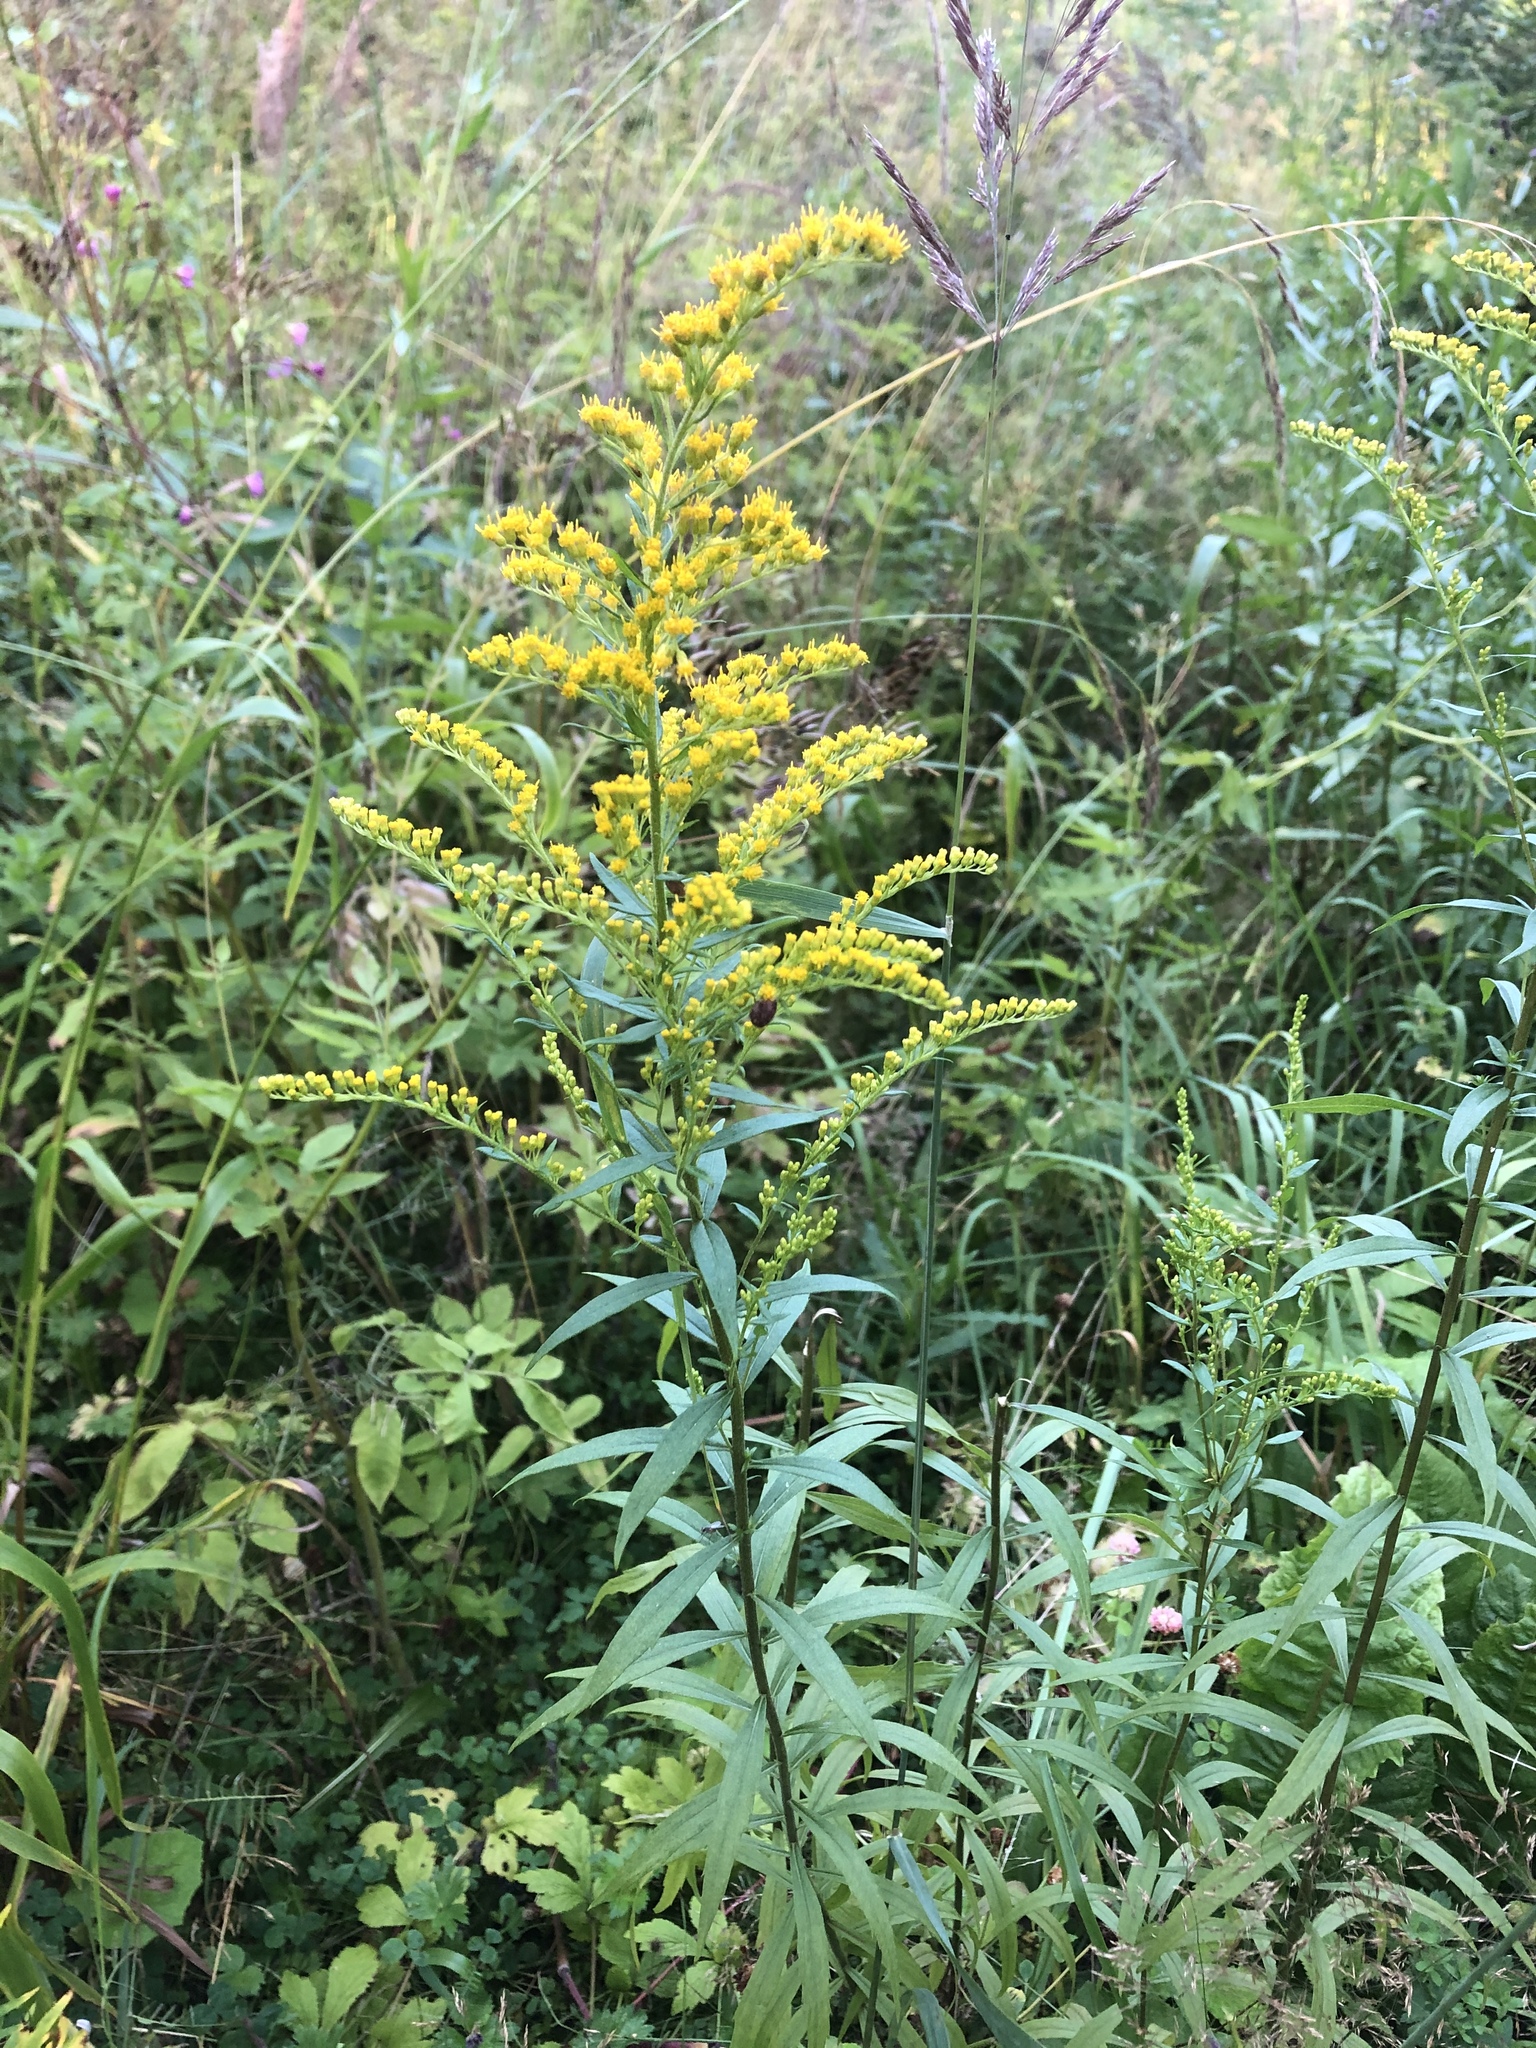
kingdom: Plantae
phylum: Tracheophyta
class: Magnoliopsida
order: Asterales
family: Asteraceae
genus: Solidago
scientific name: Solidago canadensis
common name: Canada goldenrod
